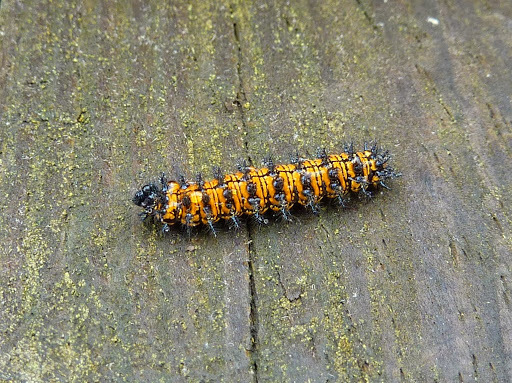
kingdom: Animalia
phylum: Arthropoda
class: Insecta
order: Lepidoptera
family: Nymphalidae
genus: Chlosyne
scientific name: Chlosyne harrisii
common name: Harris's checkerspot
